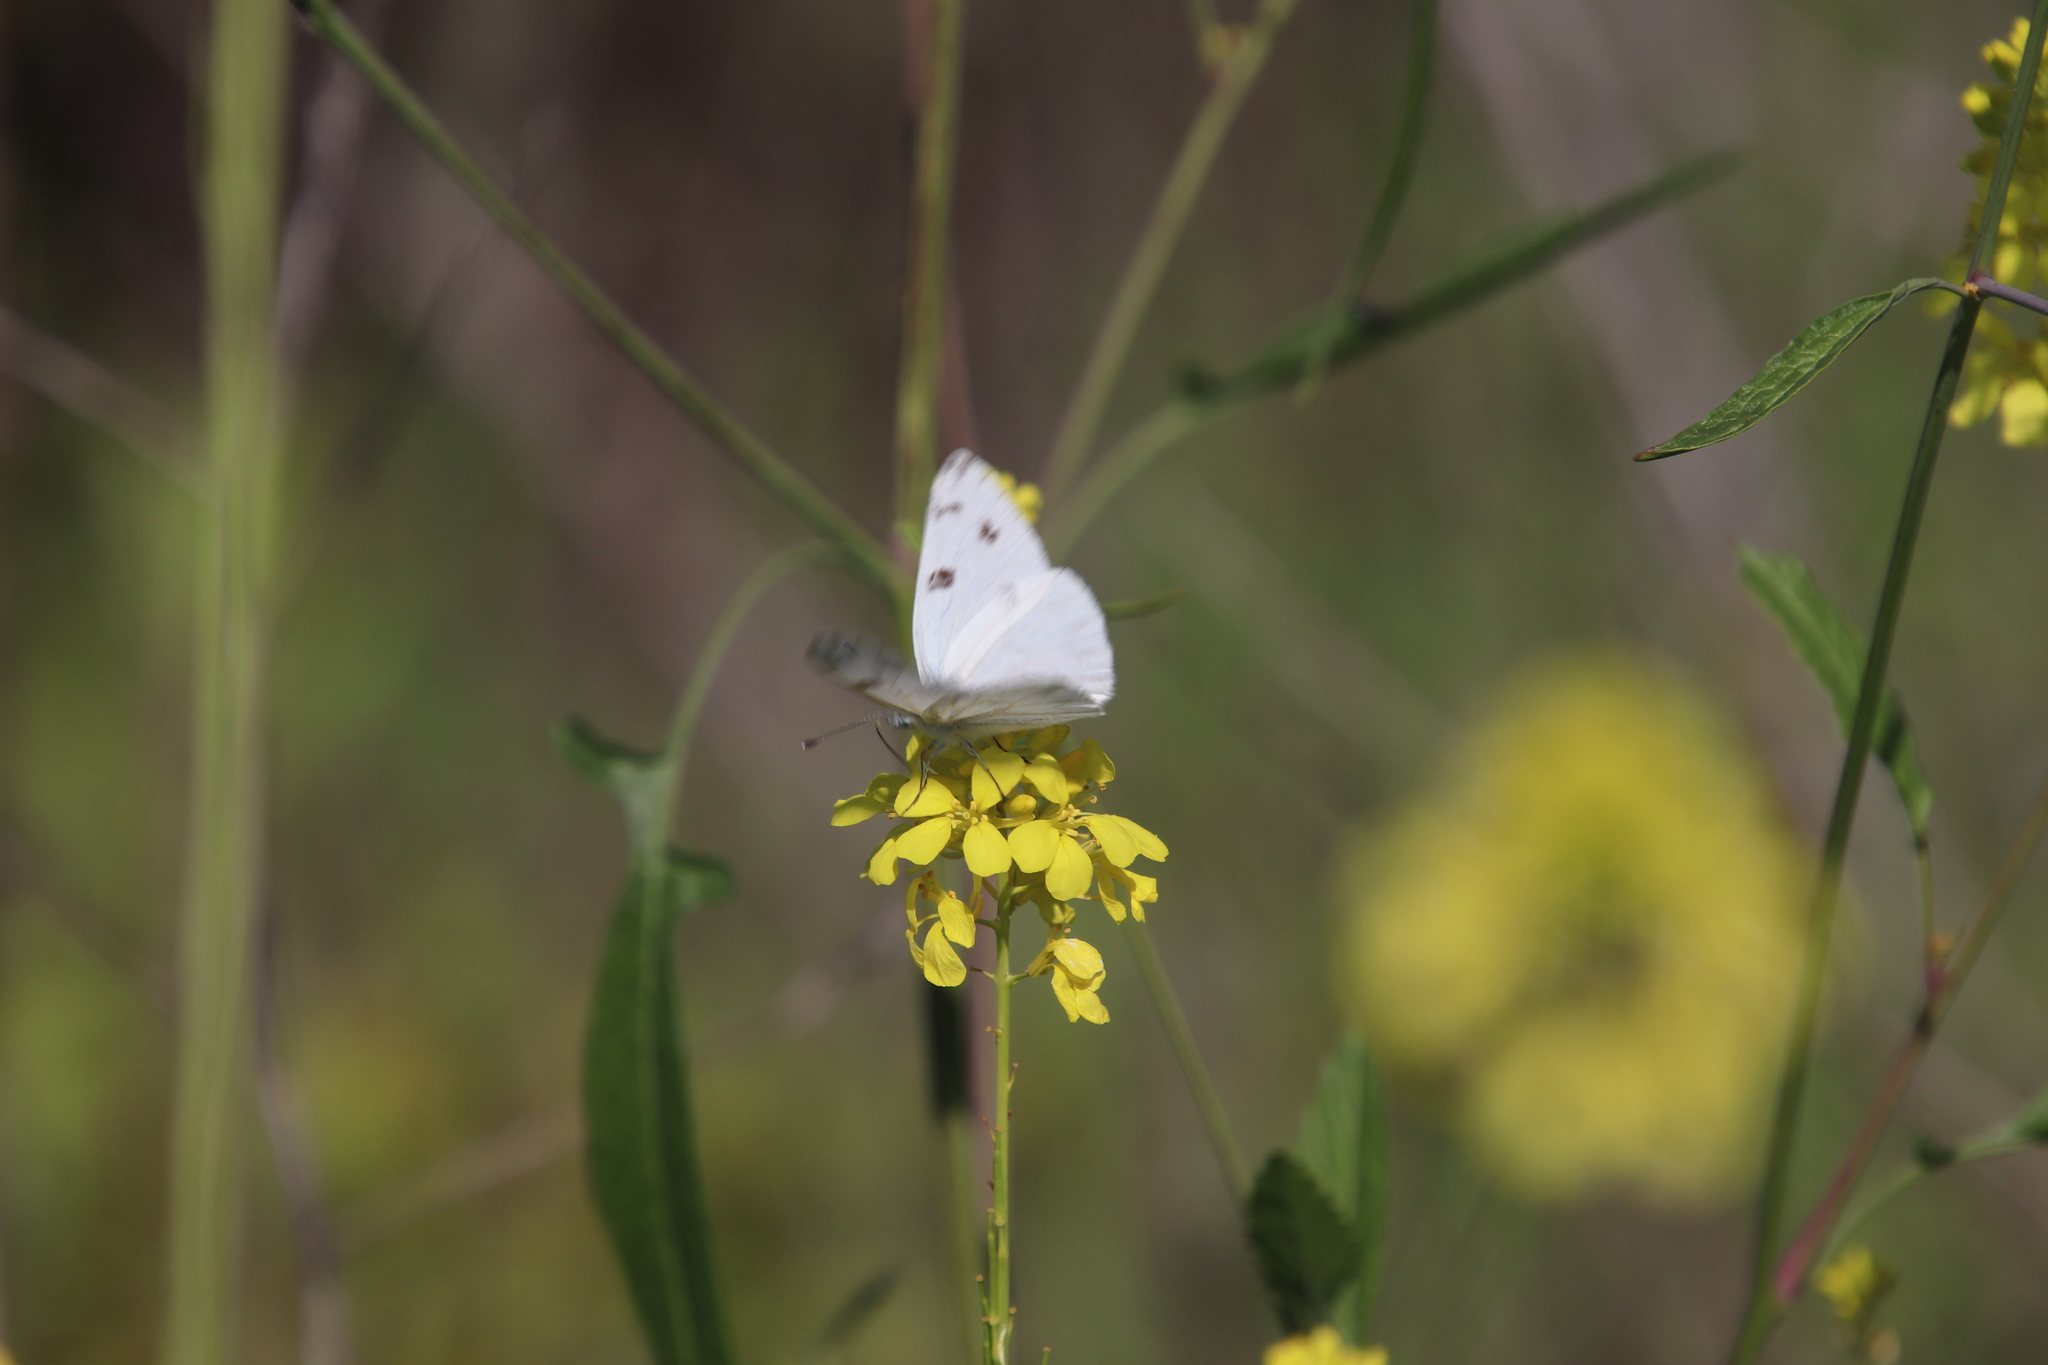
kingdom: Animalia
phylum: Arthropoda
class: Insecta
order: Lepidoptera
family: Pieridae
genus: Pontia
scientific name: Pontia protodice
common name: Checkered white
